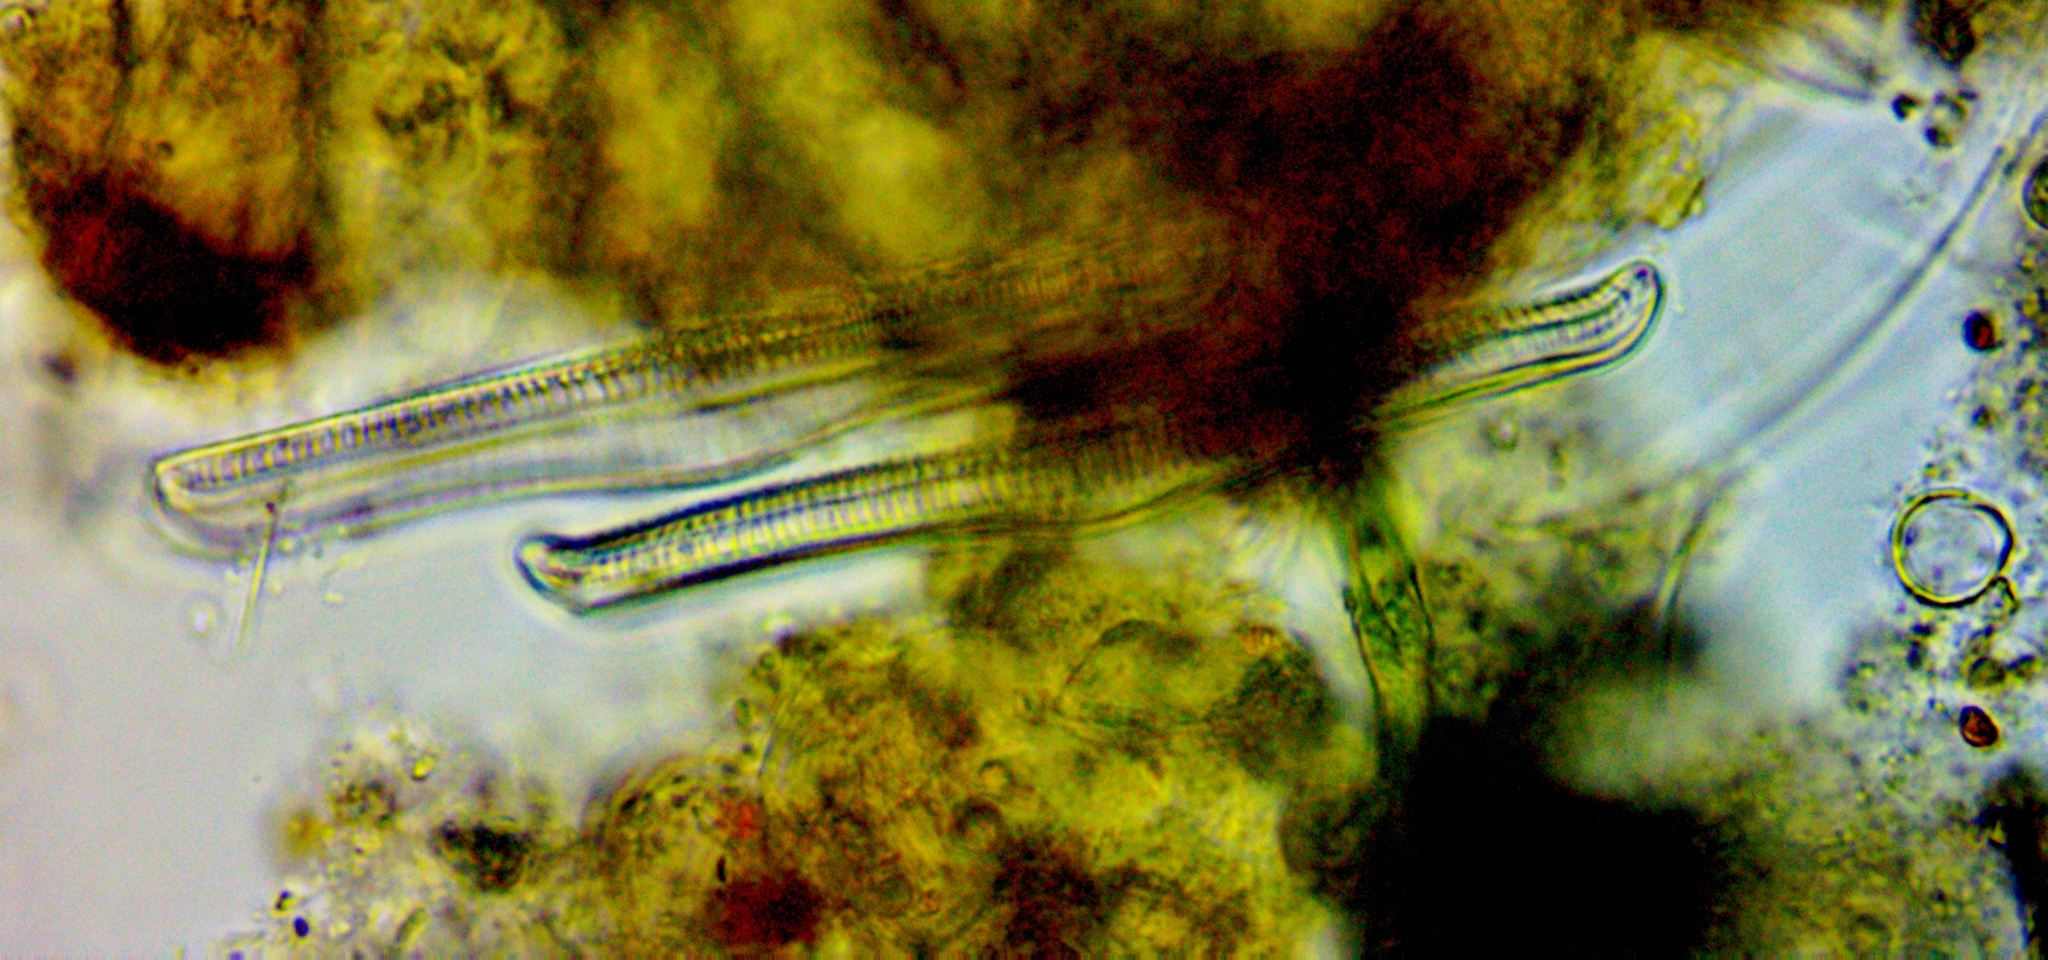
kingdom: Chromista
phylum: Ochrophyta
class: Bacillariophyceae
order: Rhopalodiales
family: Rhopalodiaceae
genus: Epithemia
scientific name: Epithemia gibba
